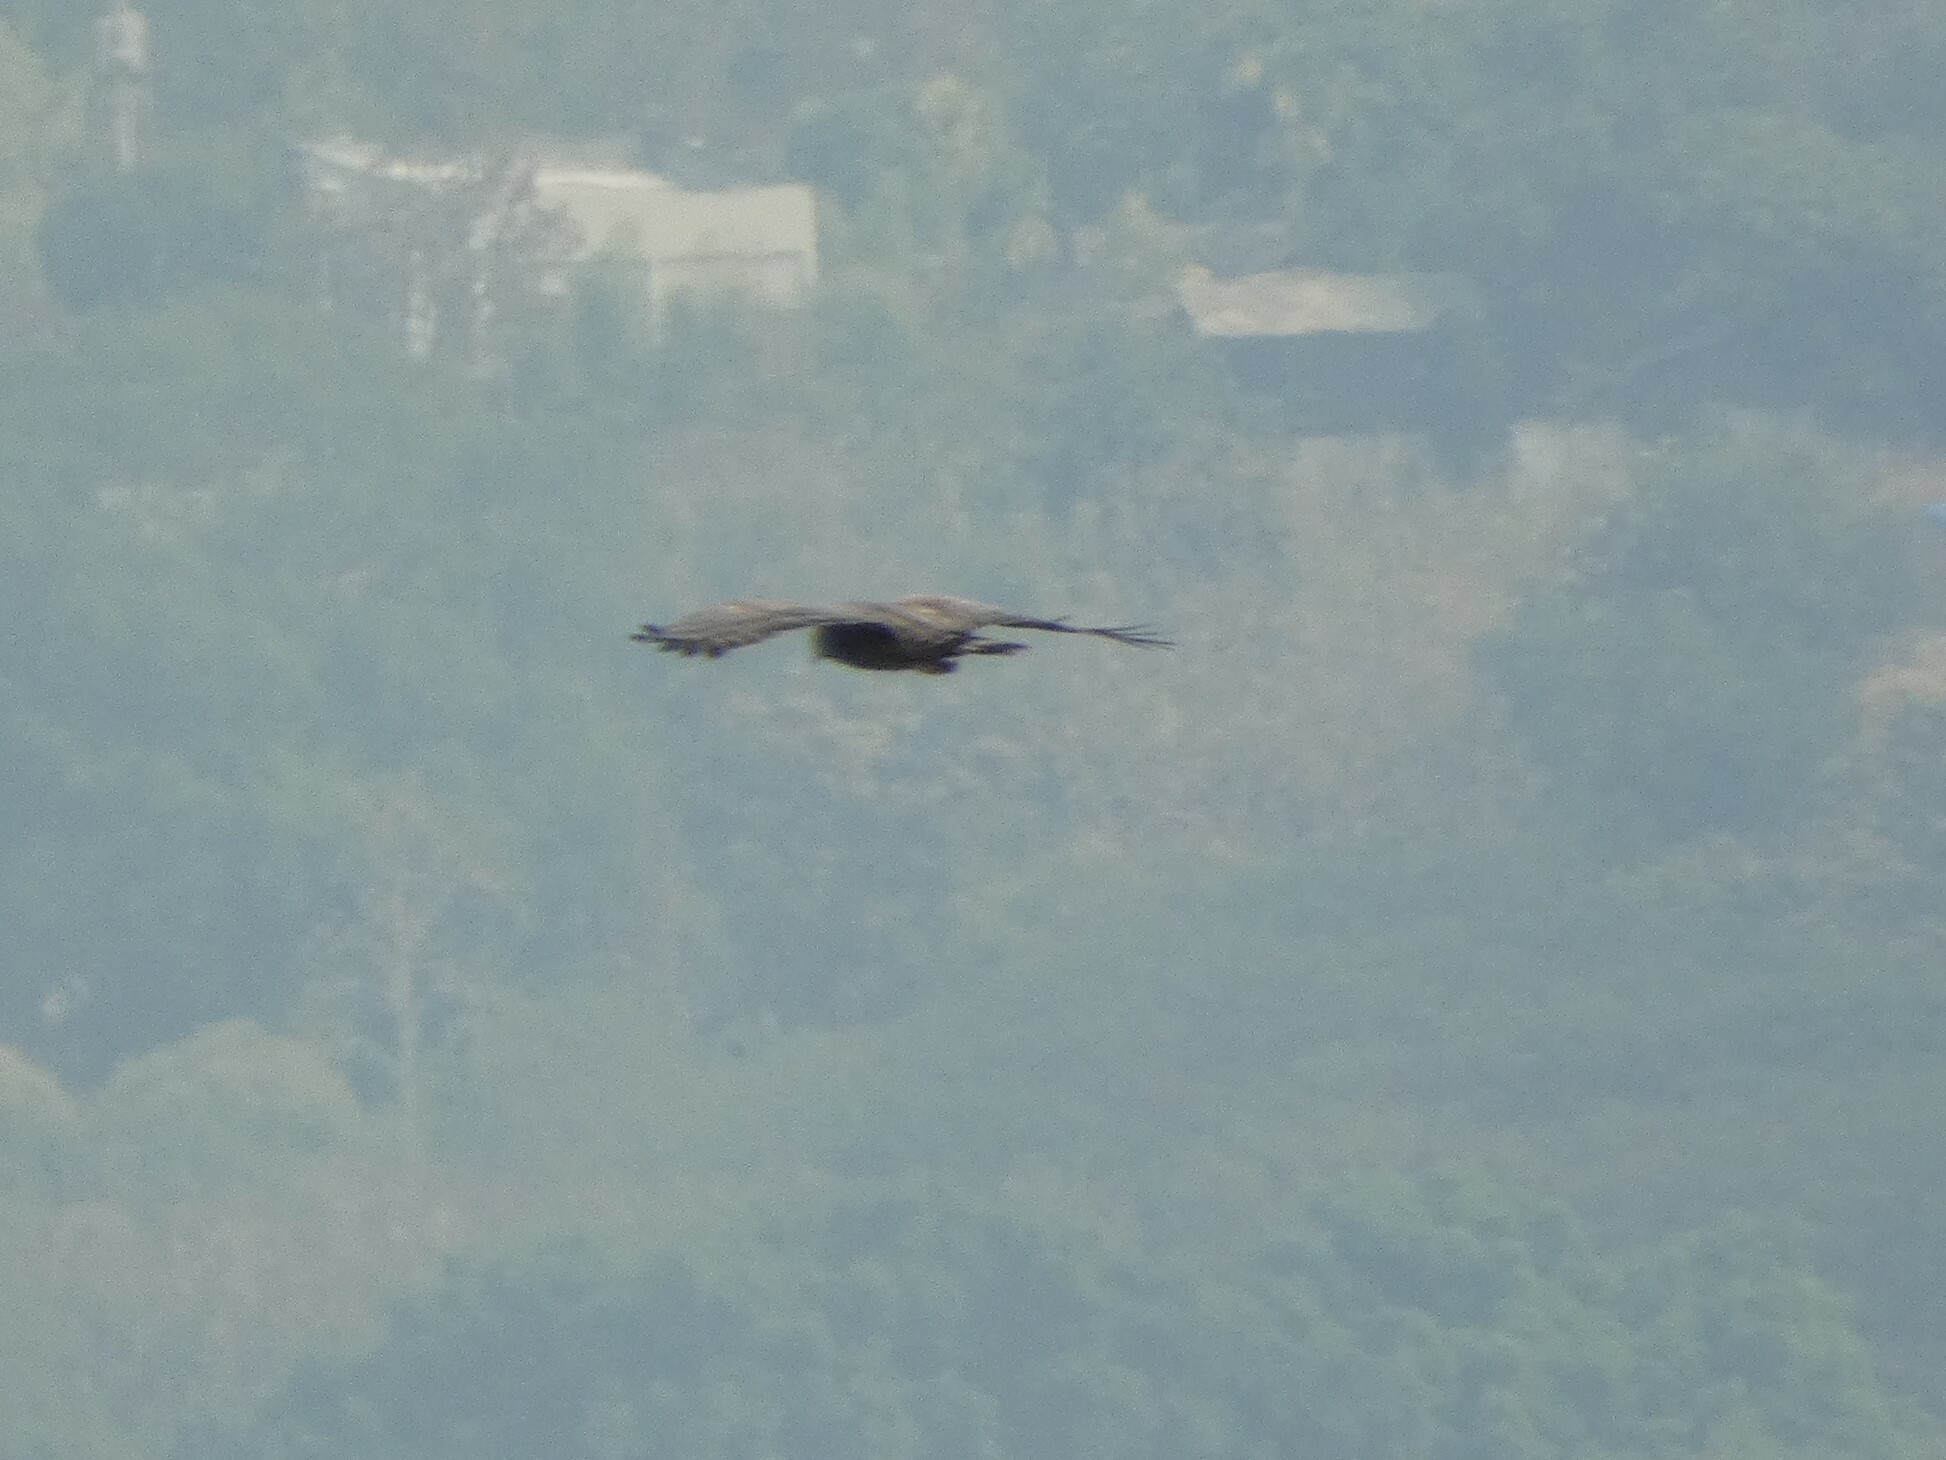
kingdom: Animalia
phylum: Chordata
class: Aves
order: Accipitriformes
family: Accipitridae
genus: Pernis
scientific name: Pernis ptilorhynchus
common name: Crested honey buzzard
